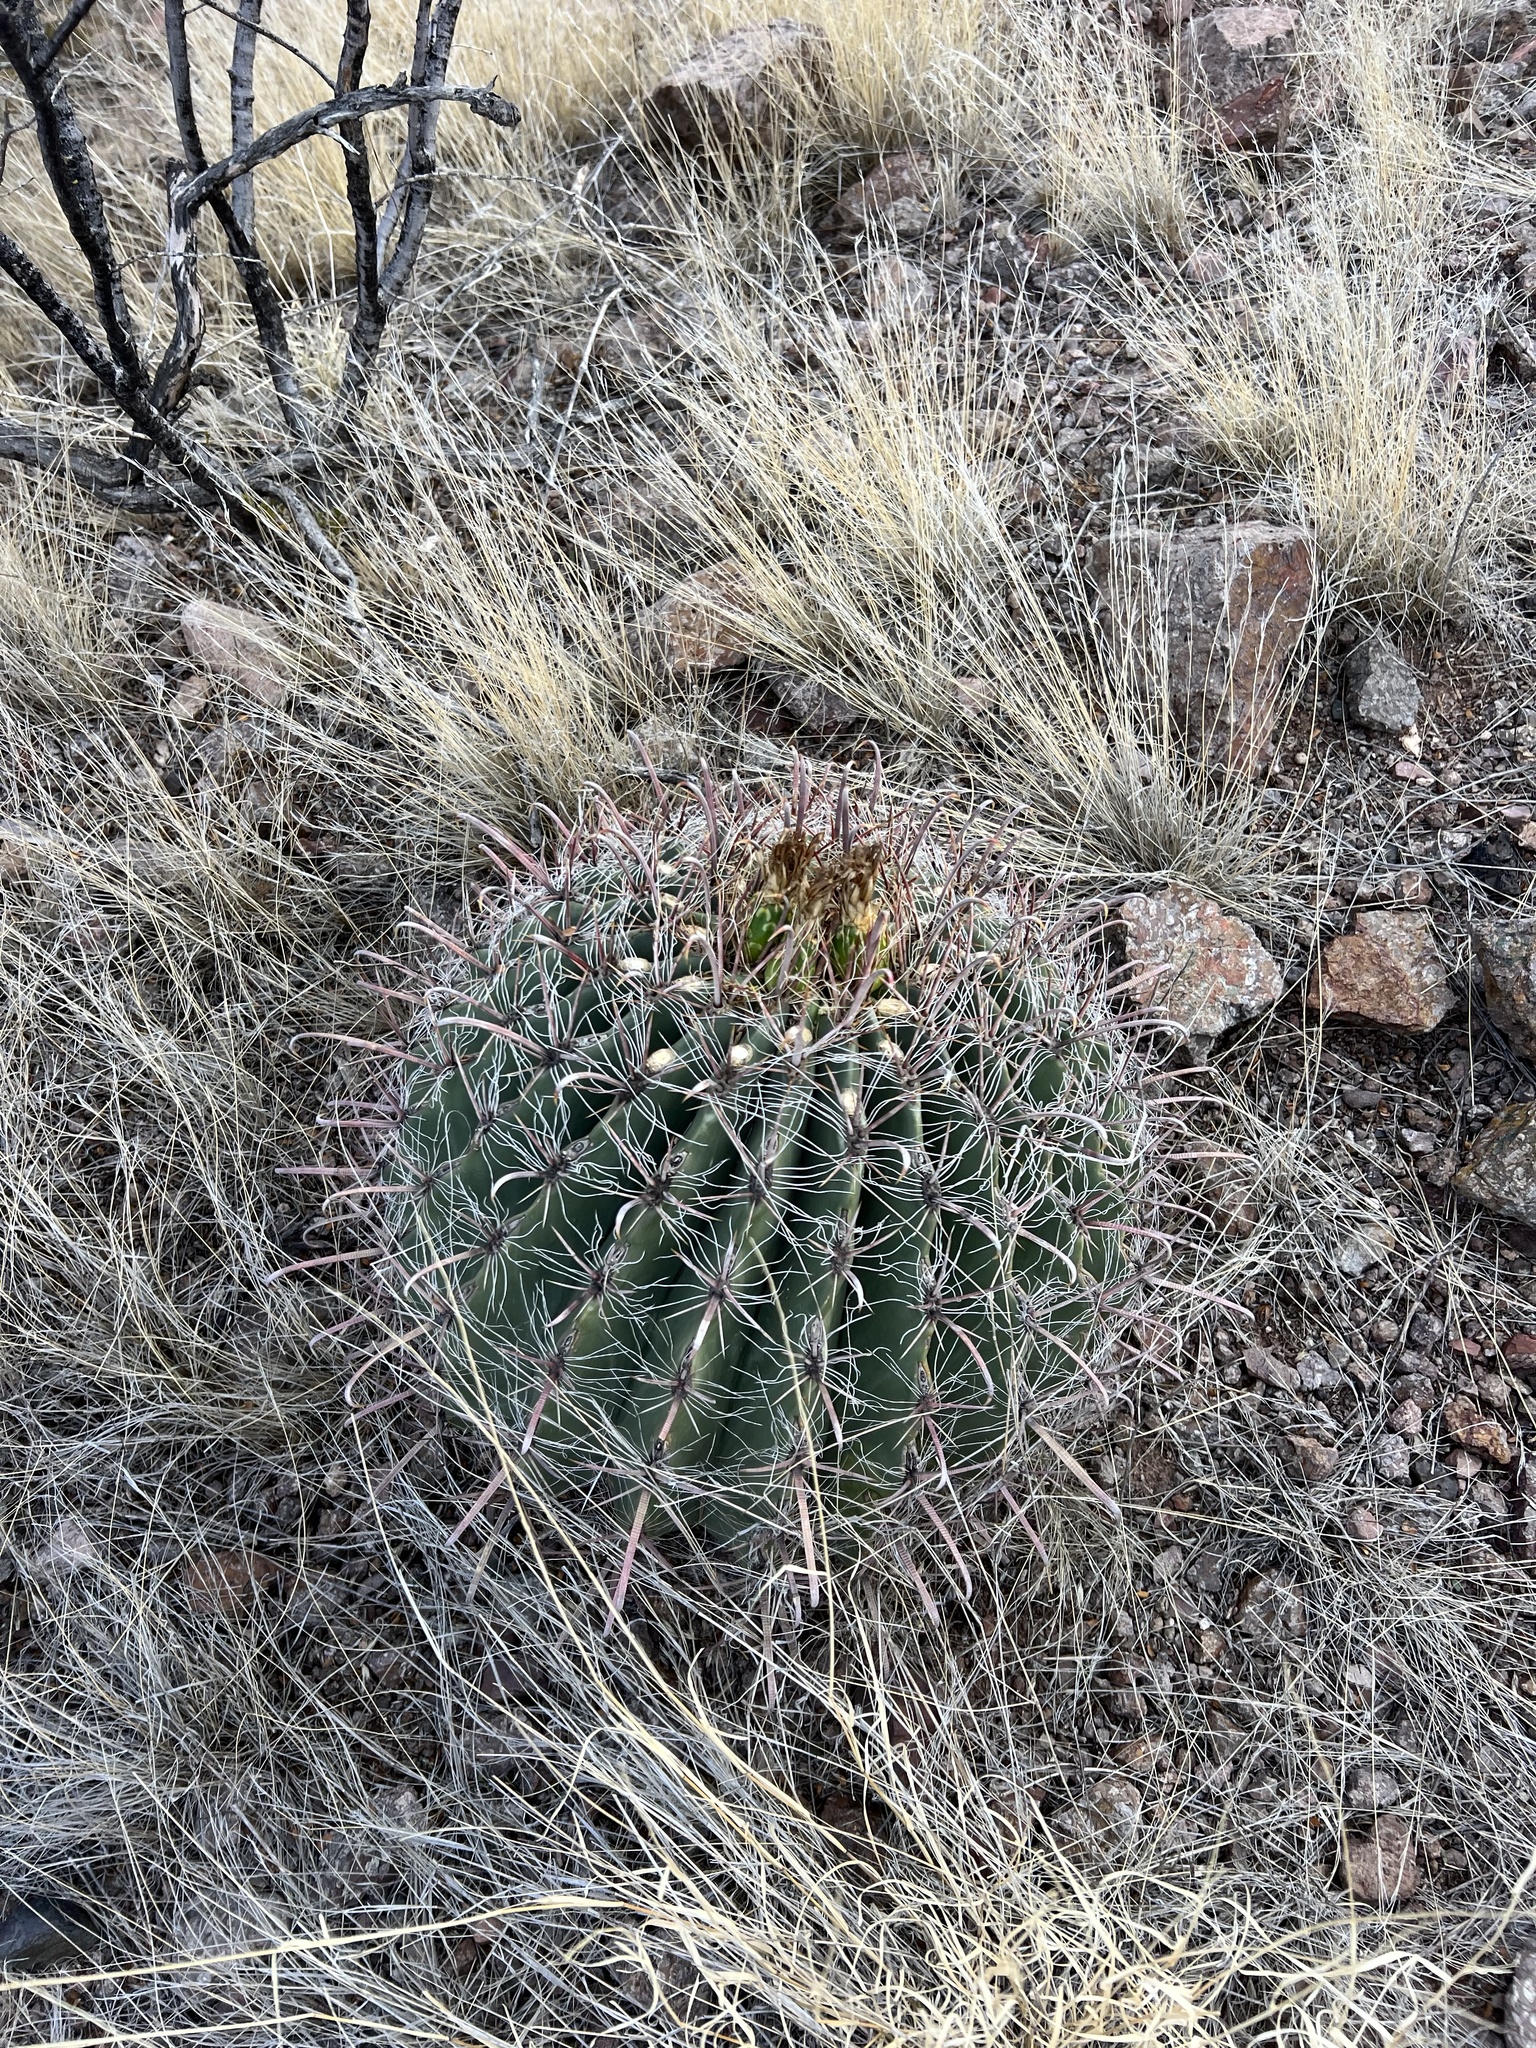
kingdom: Plantae
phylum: Tracheophyta
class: Magnoliopsida
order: Caryophyllales
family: Cactaceae
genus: Ferocactus
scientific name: Ferocactus wislizeni
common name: Candy barrel cactus
